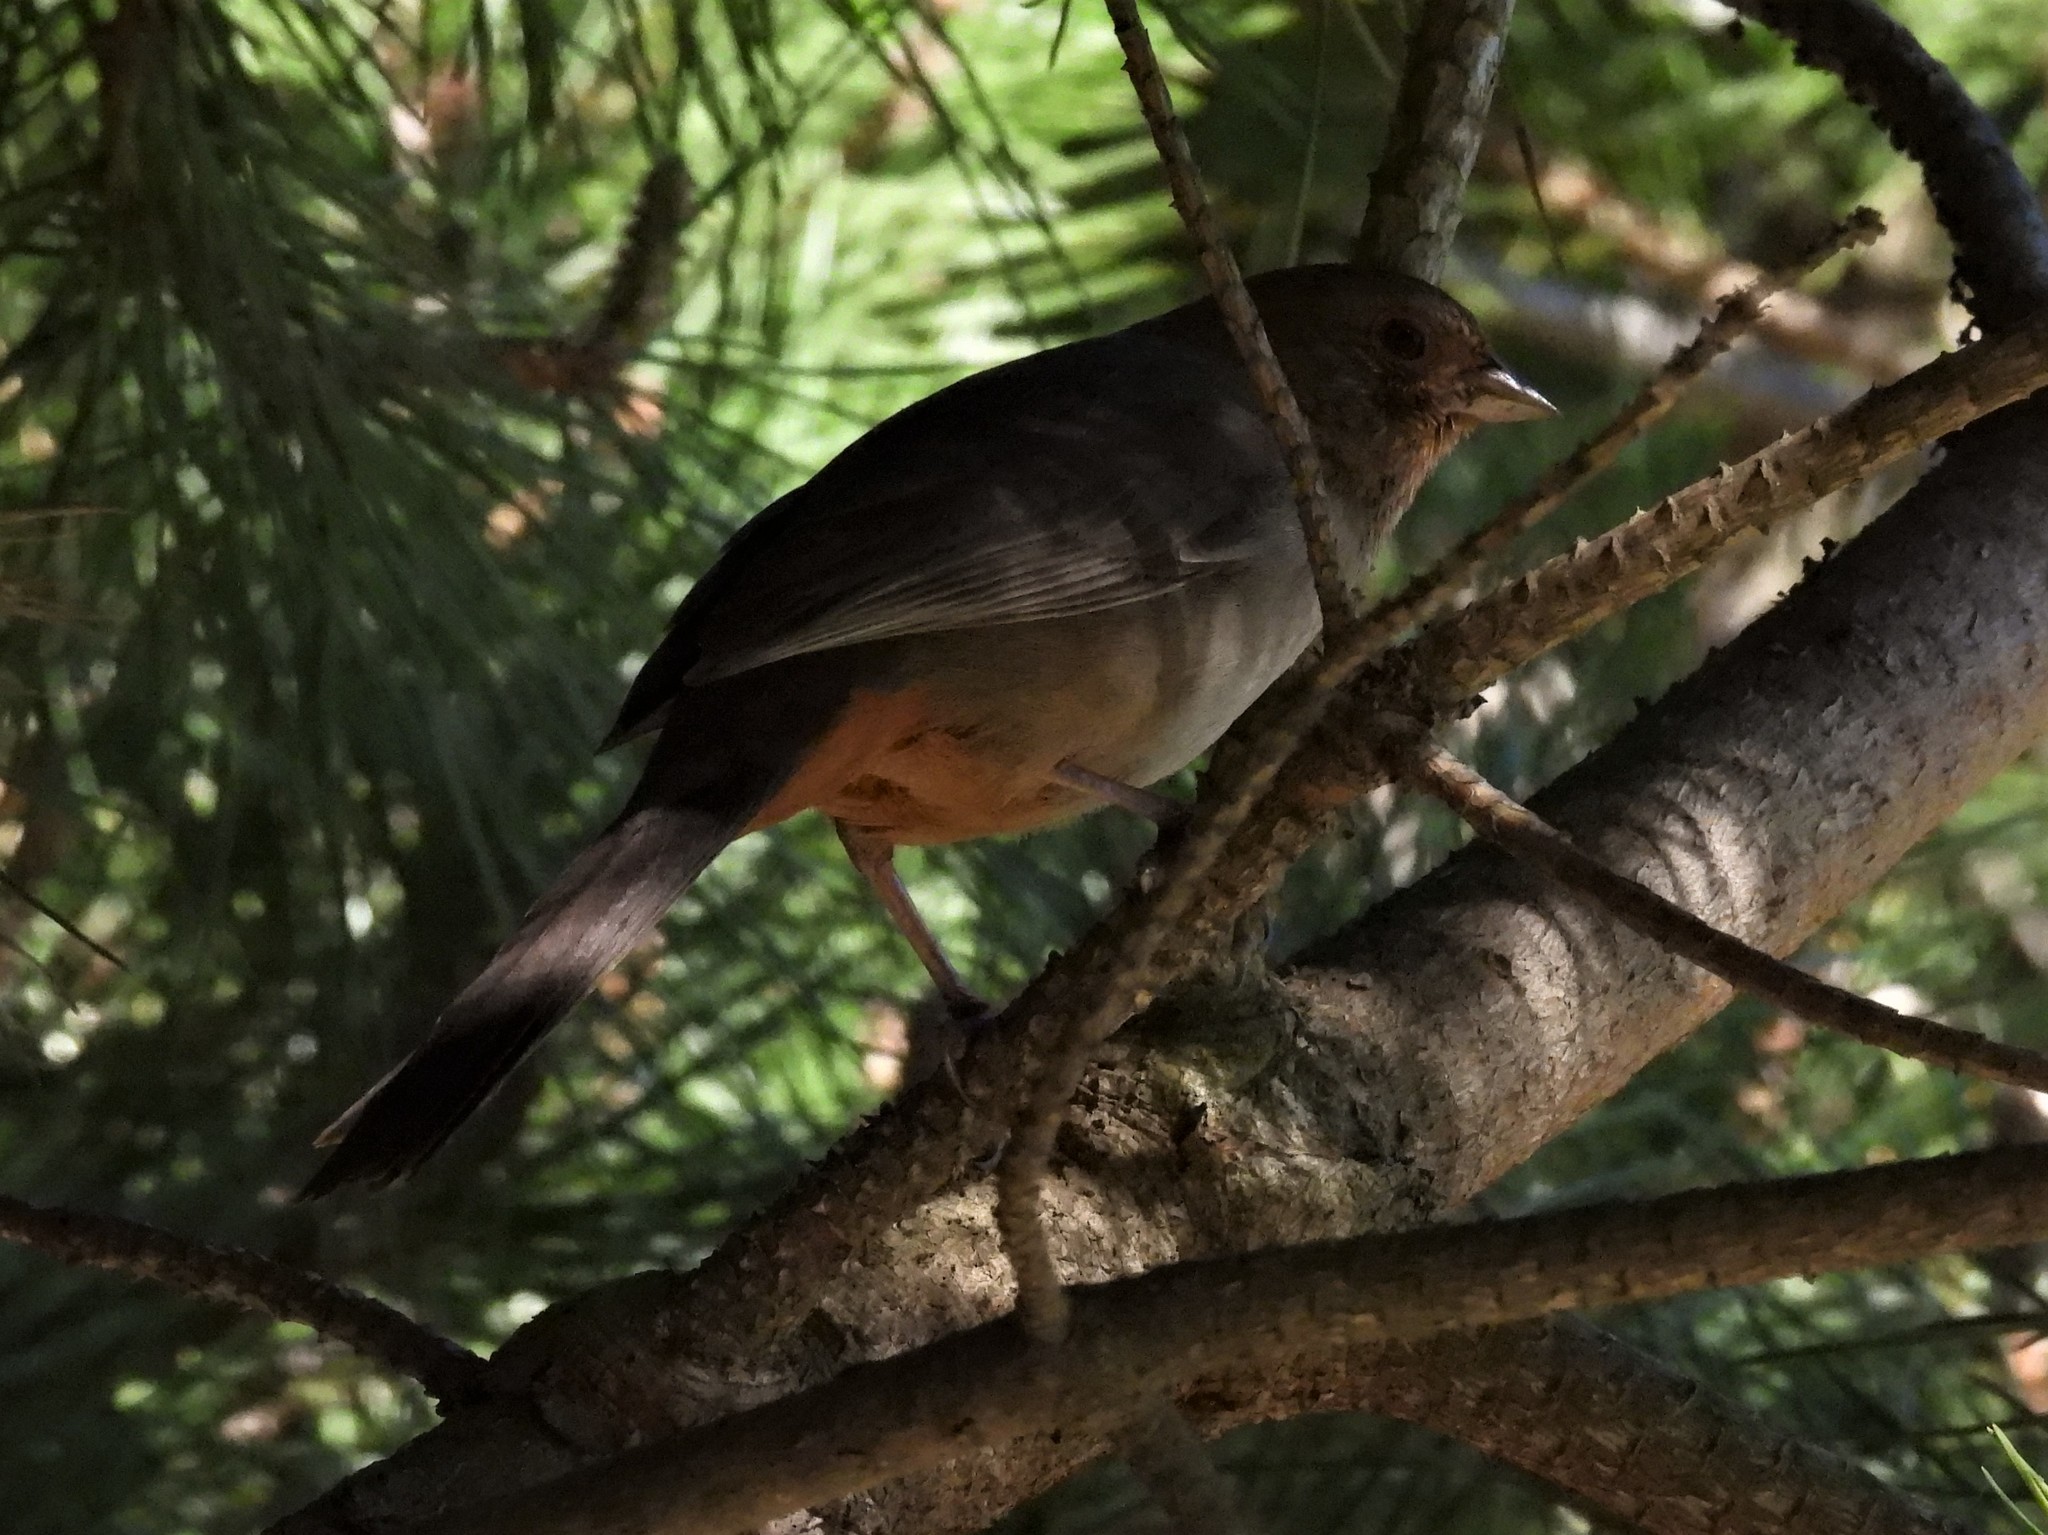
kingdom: Animalia
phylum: Chordata
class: Aves
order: Passeriformes
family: Passerellidae
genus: Melozone
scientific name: Melozone crissalis
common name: California towhee
